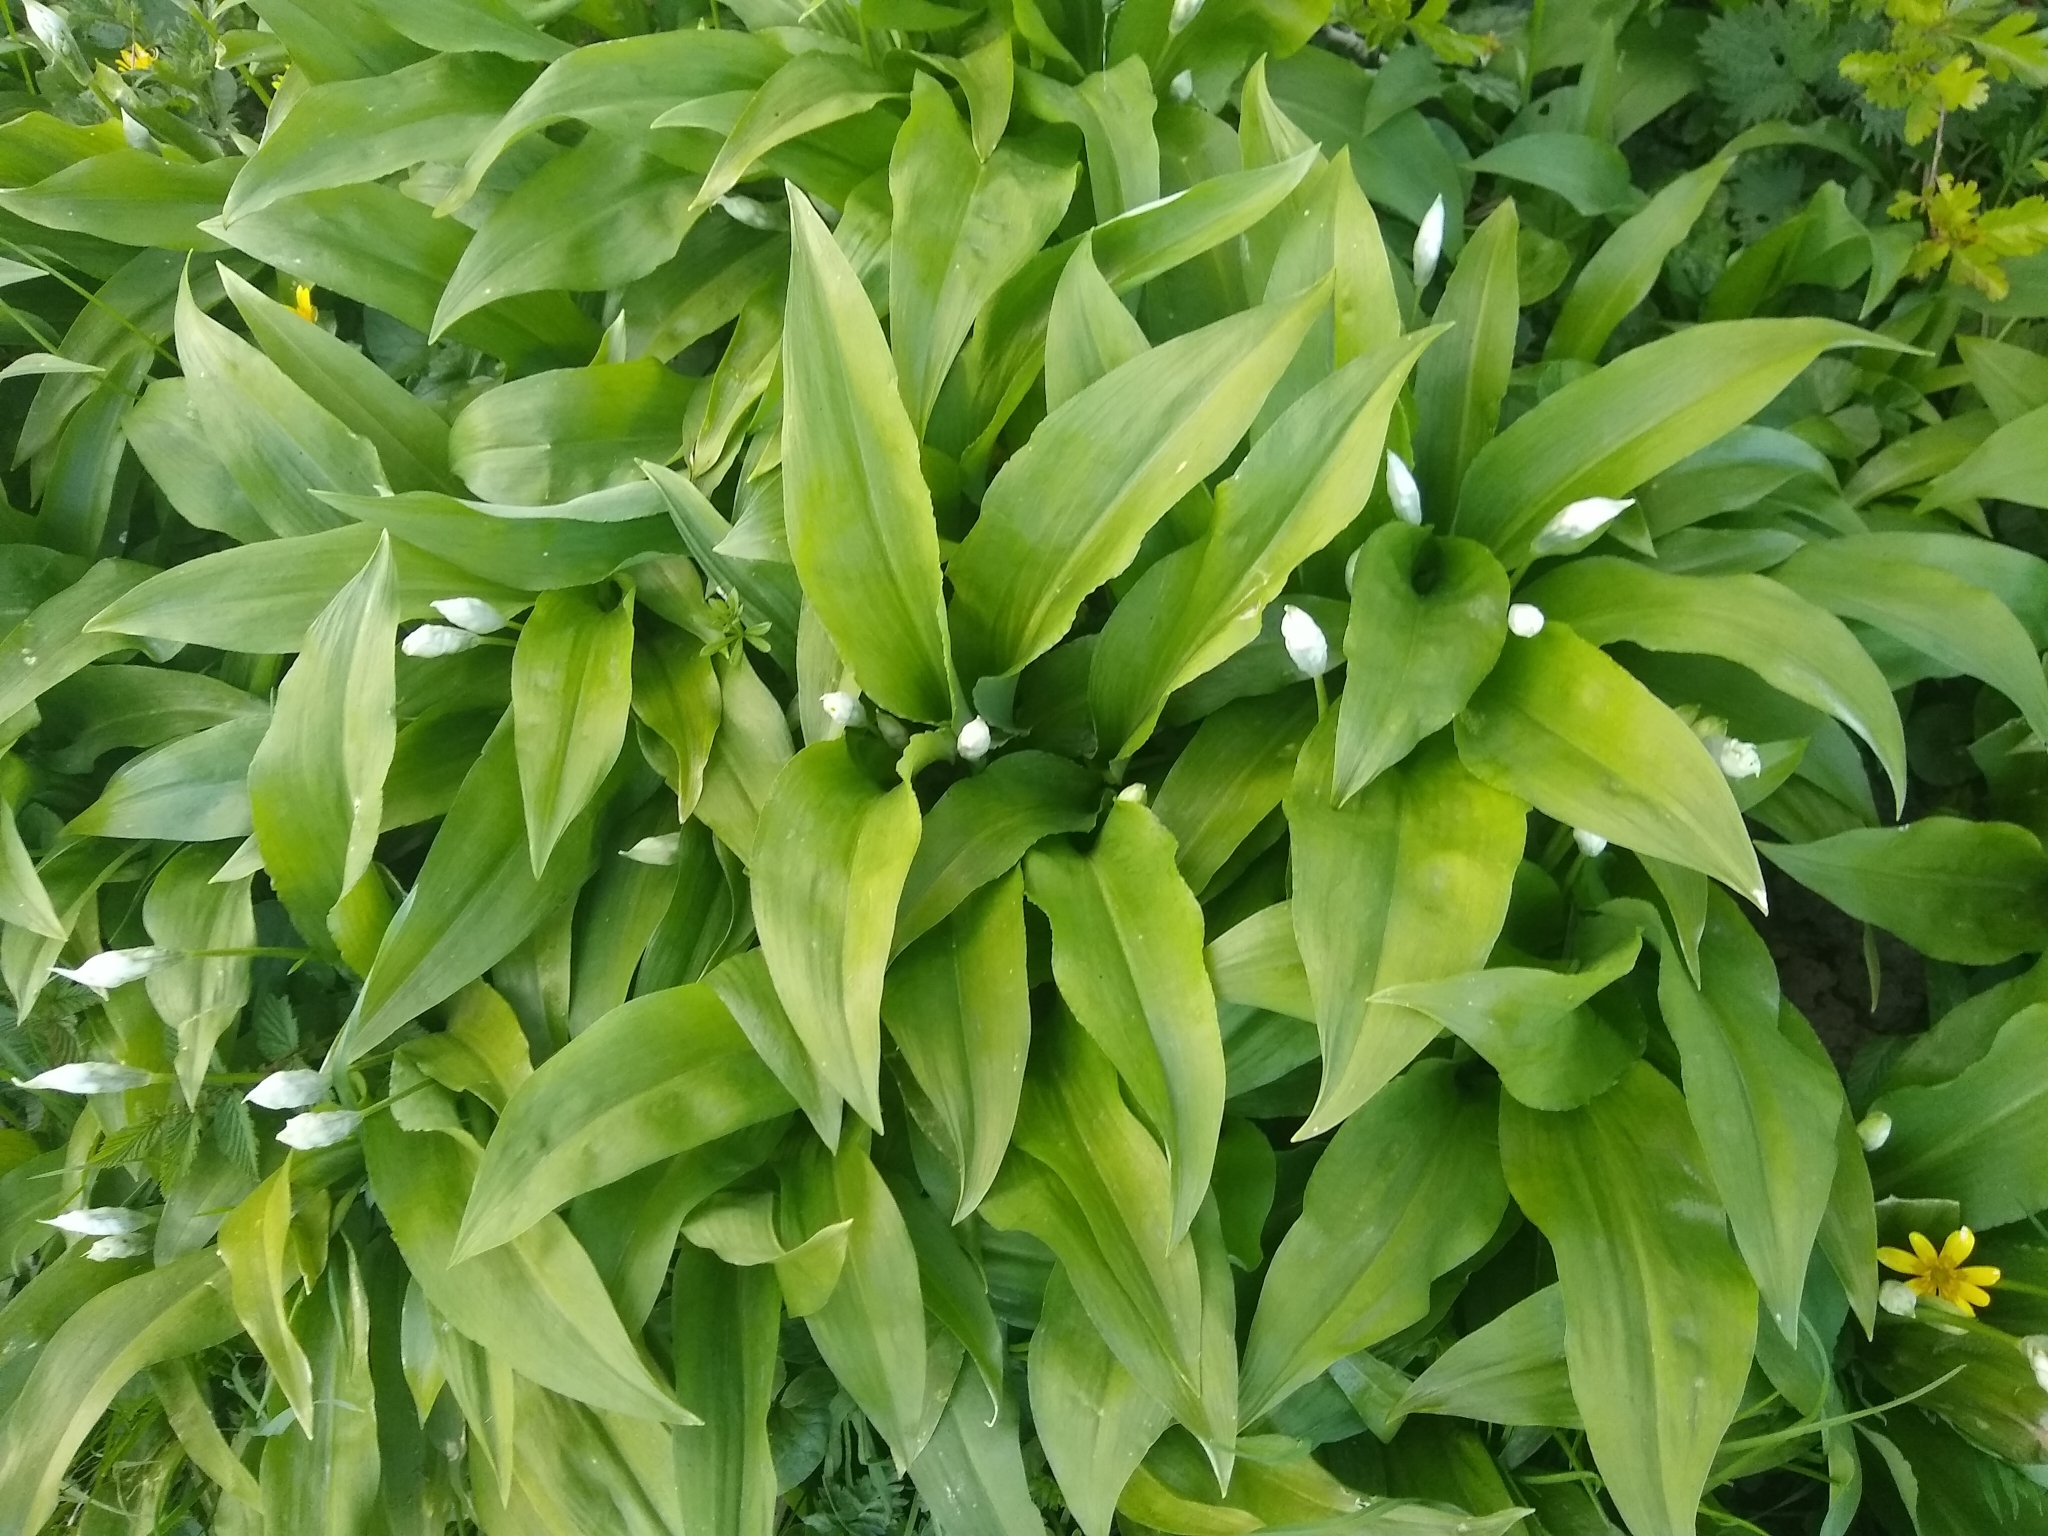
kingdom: Plantae
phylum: Tracheophyta
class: Liliopsida
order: Asparagales
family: Amaryllidaceae
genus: Allium
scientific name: Allium ursinum
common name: Ramsons
